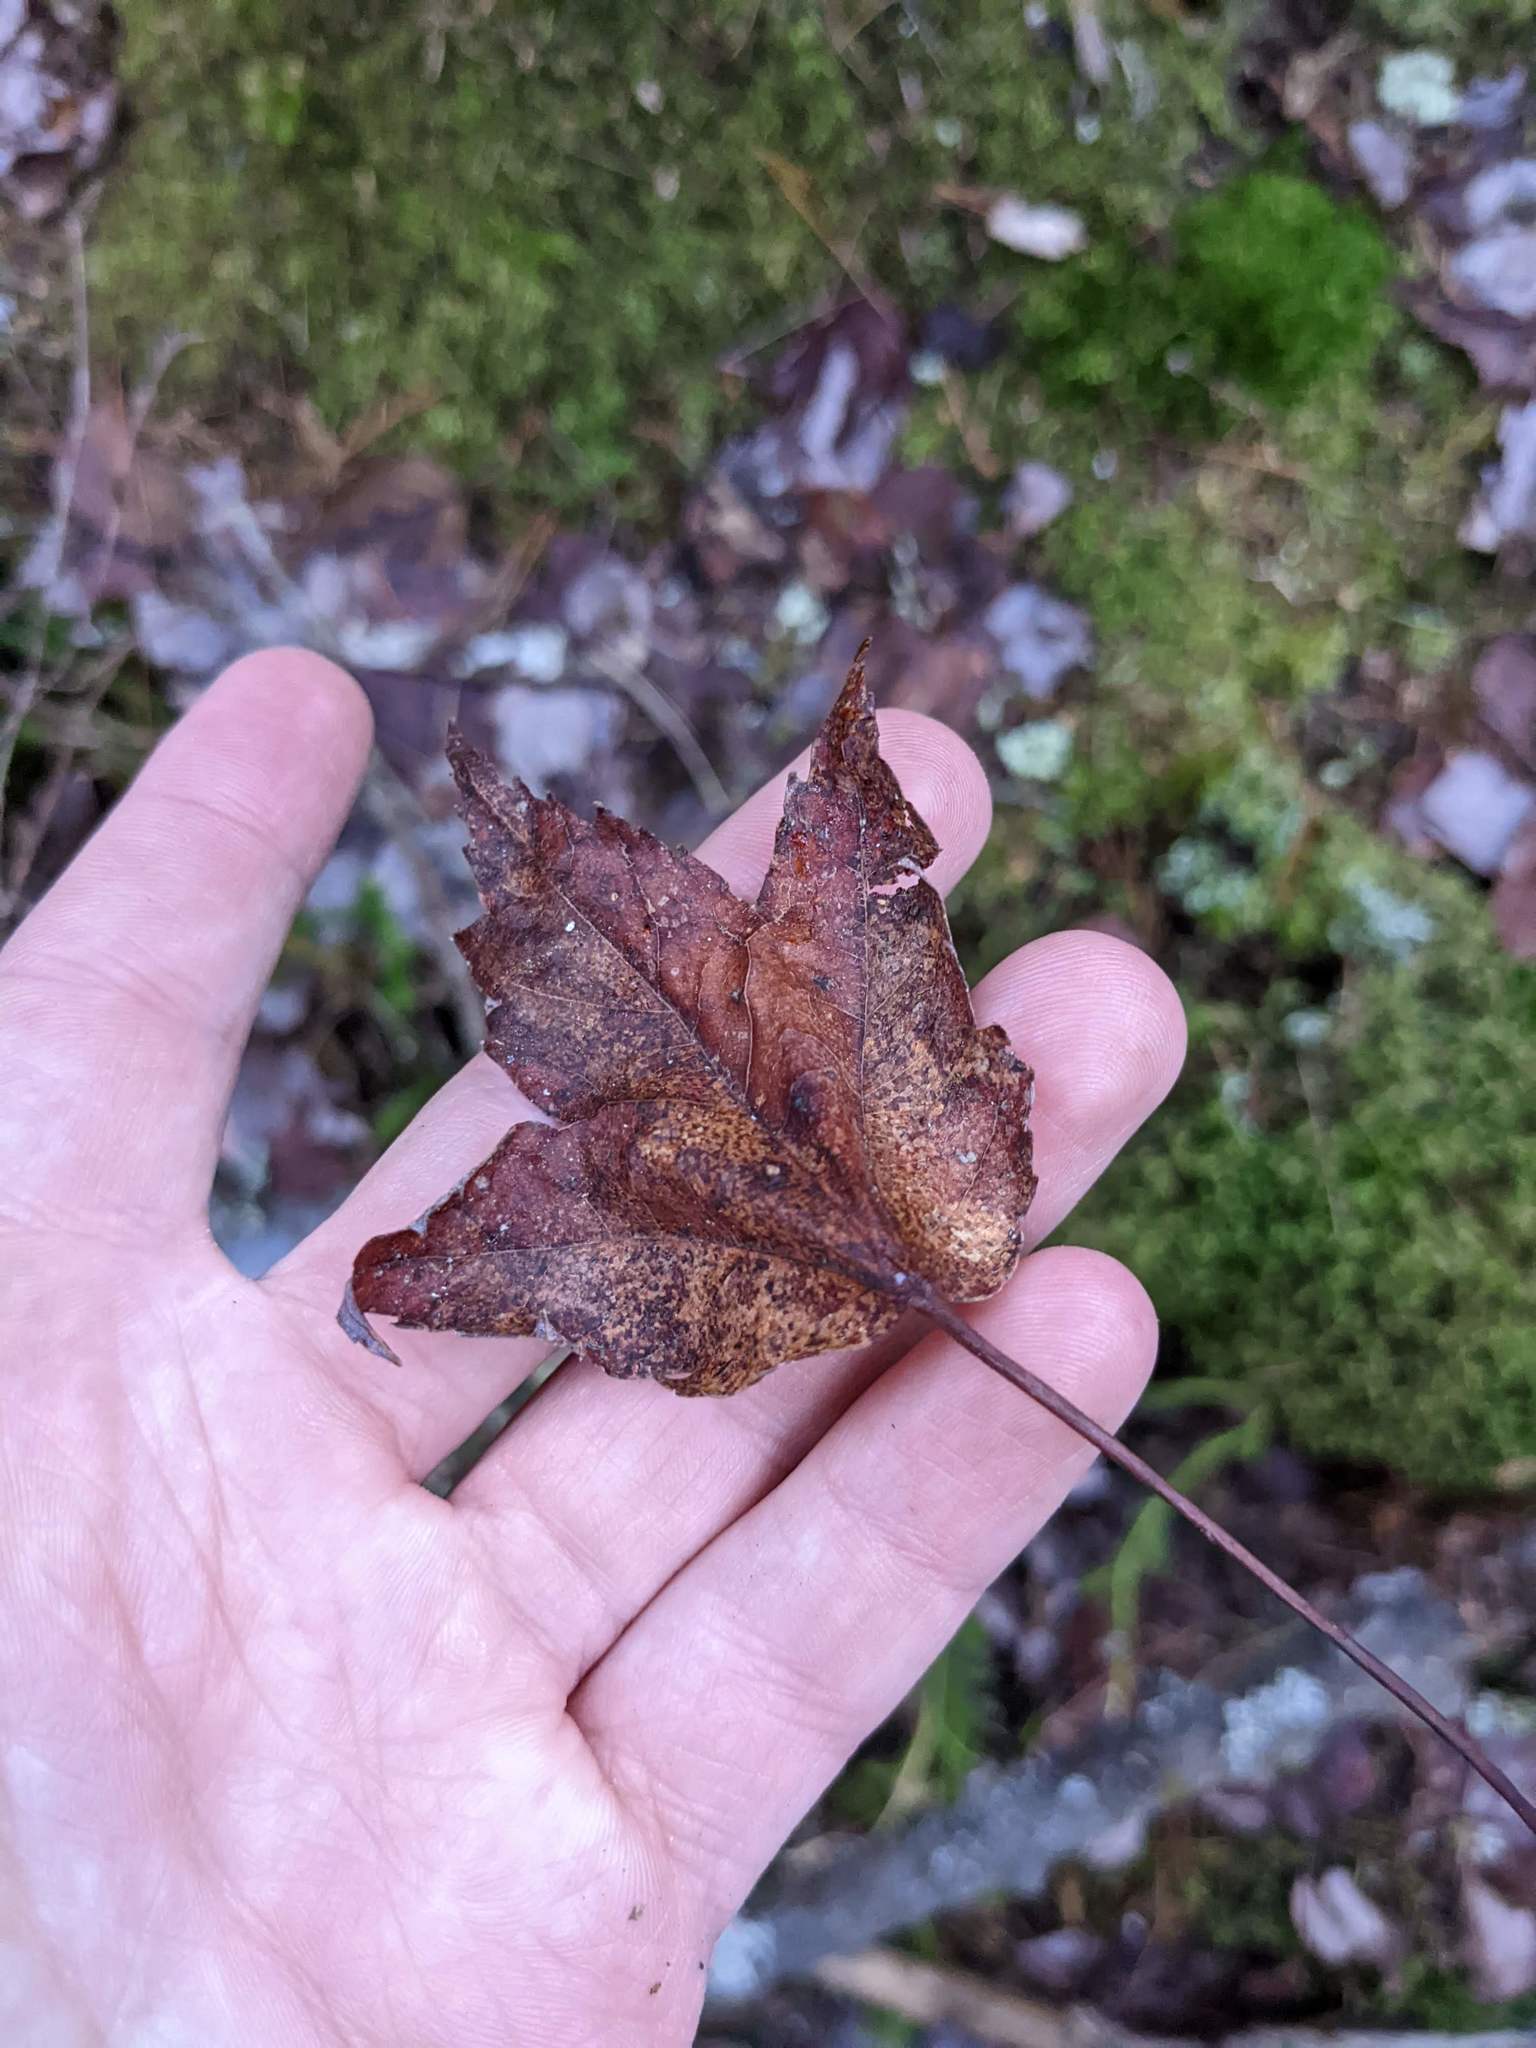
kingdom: Plantae
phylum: Tracheophyta
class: Magnoliopsida
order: Sapindales
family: Sapindaceae
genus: Acer
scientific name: Acer rubrum
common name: Red maple
